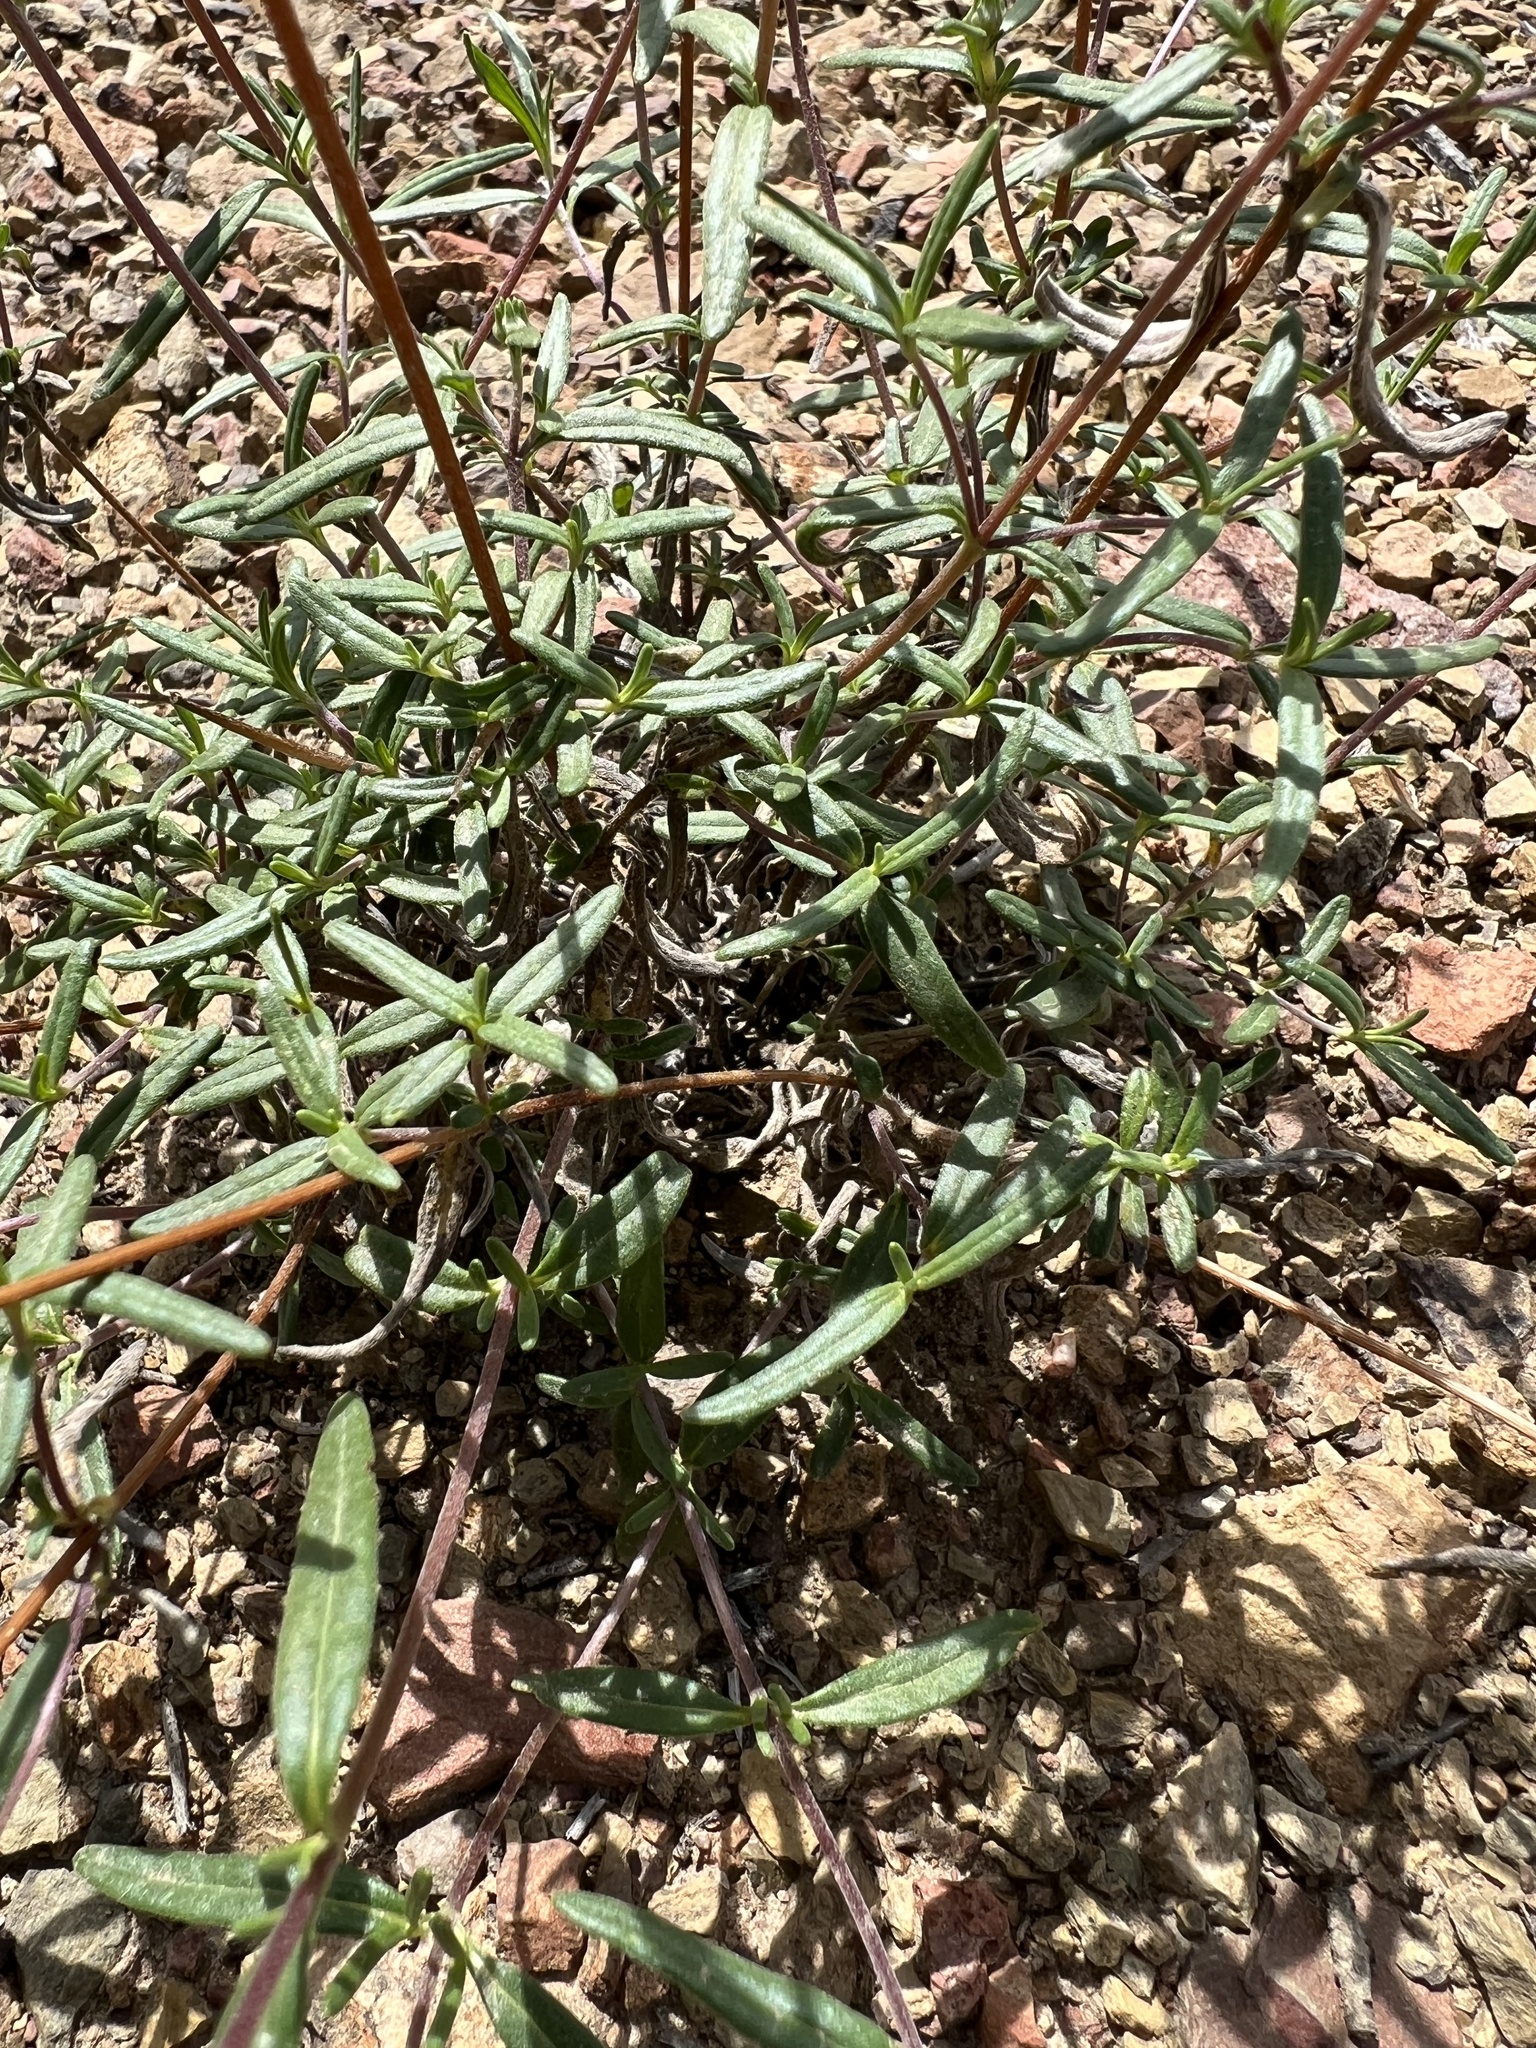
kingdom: Plantae
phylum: Tracheophyta
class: Magnoliopsida
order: Asterales
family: Asteraceae
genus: Heliomeris
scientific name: Heliomeris multiflora
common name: Showy goldeneye
